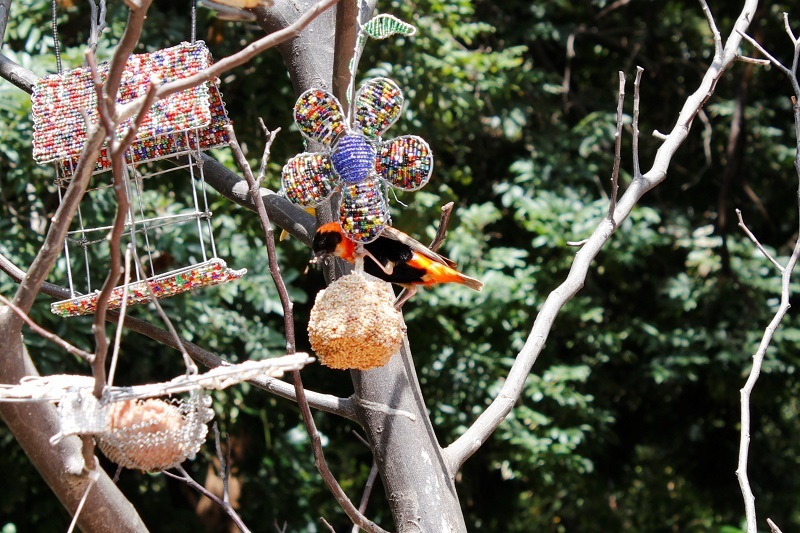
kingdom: Animalia
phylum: Chordata
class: Aves
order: Passeriformes
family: Ploceidae
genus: Euplectes
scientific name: Euplectes orix
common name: Southern red bishop
